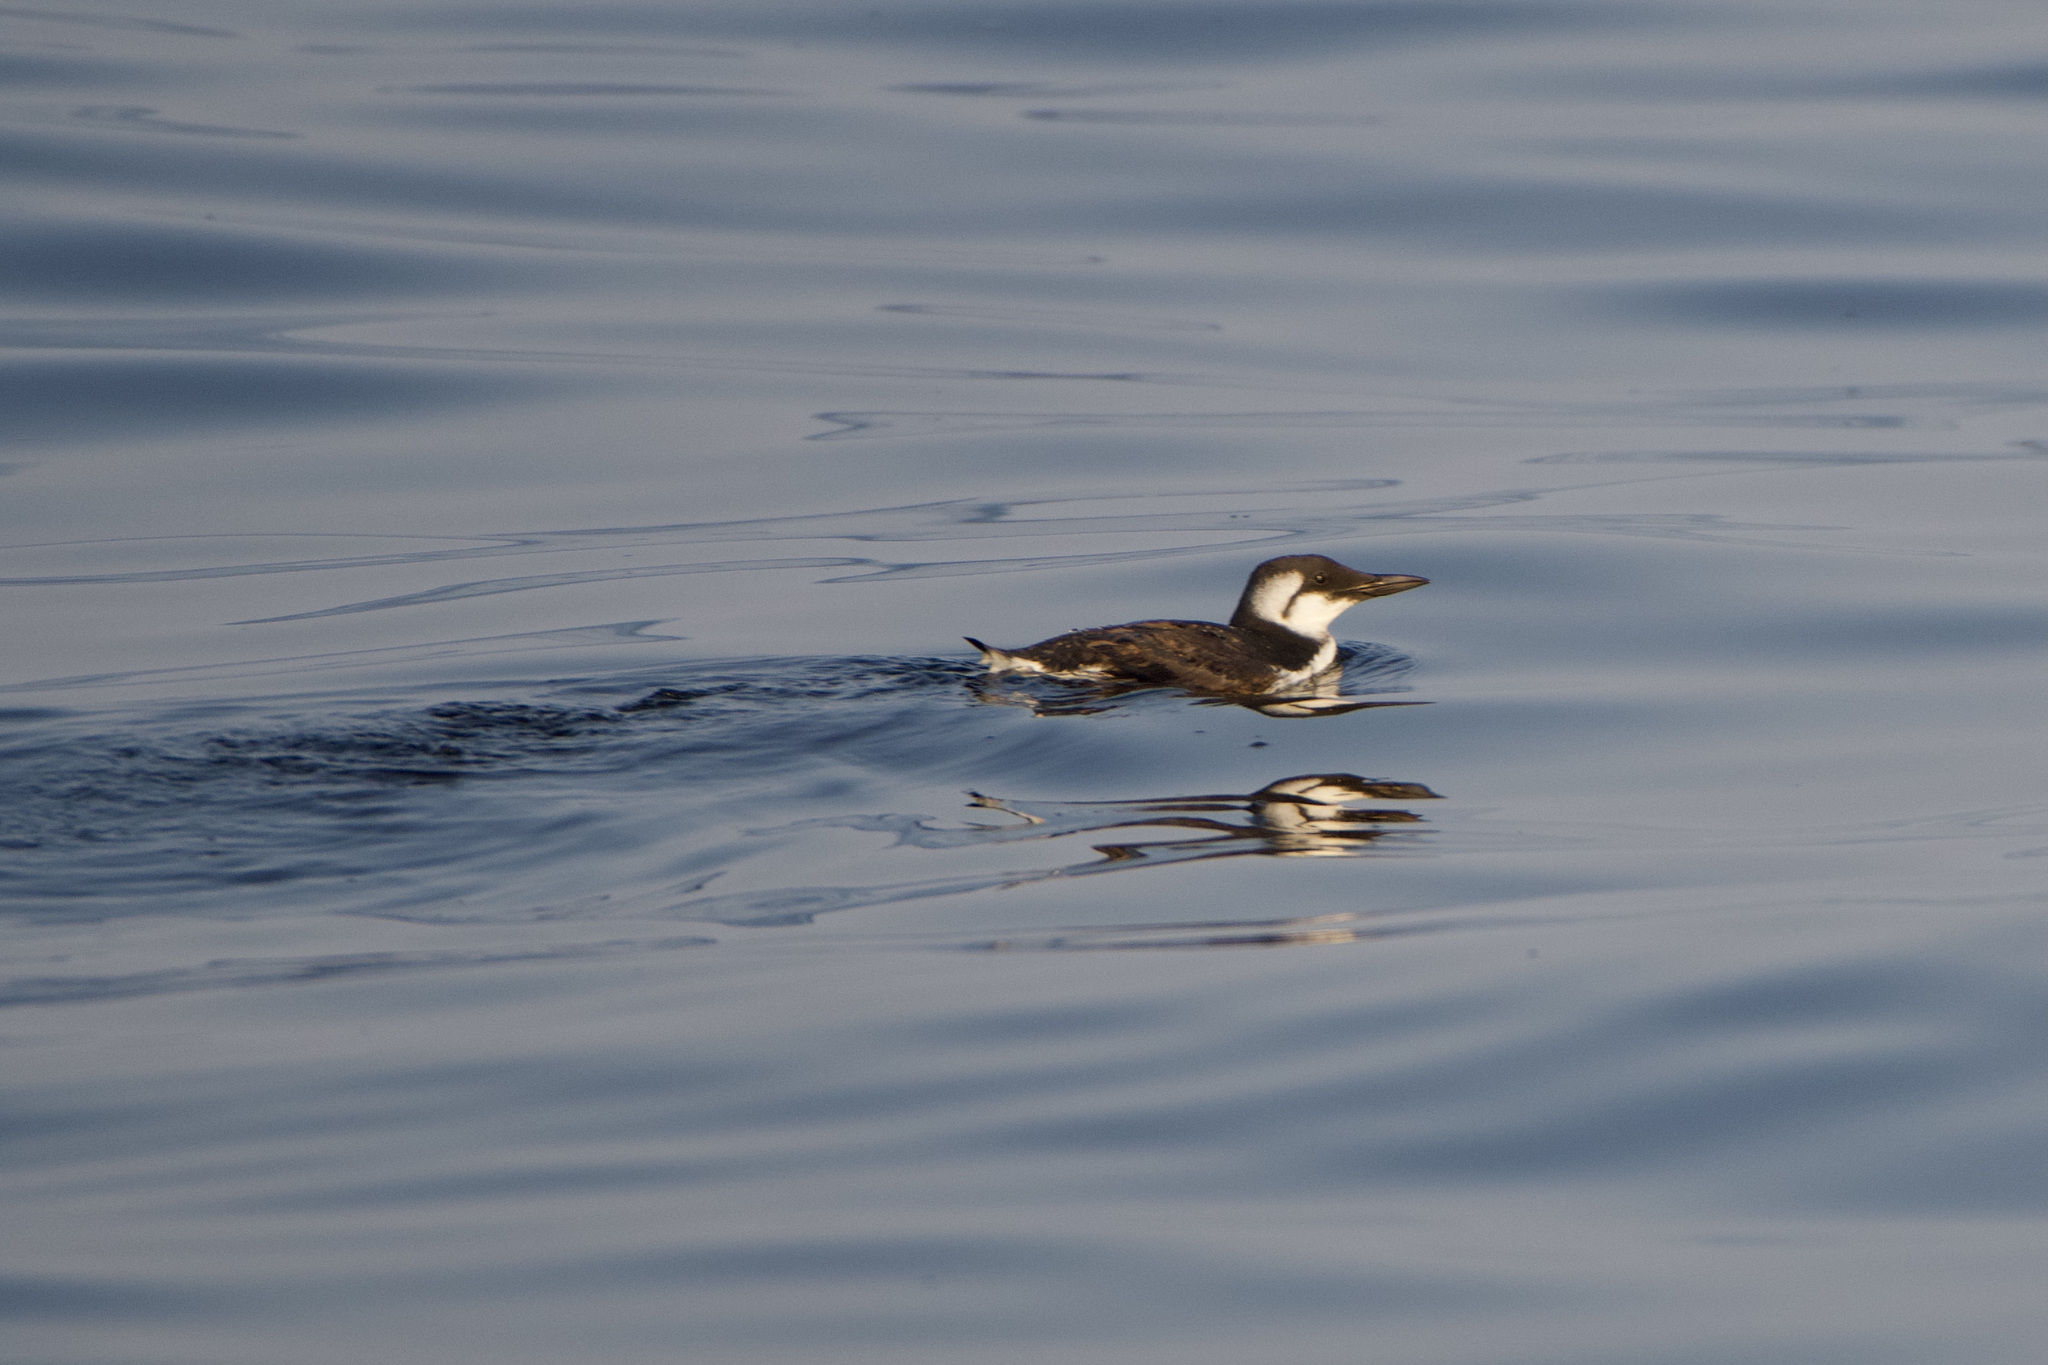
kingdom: Animalia
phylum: Chordata
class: Aves
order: Charadriiformes
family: Alcidae
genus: Uria
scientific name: Uria aalge
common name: Common murre
